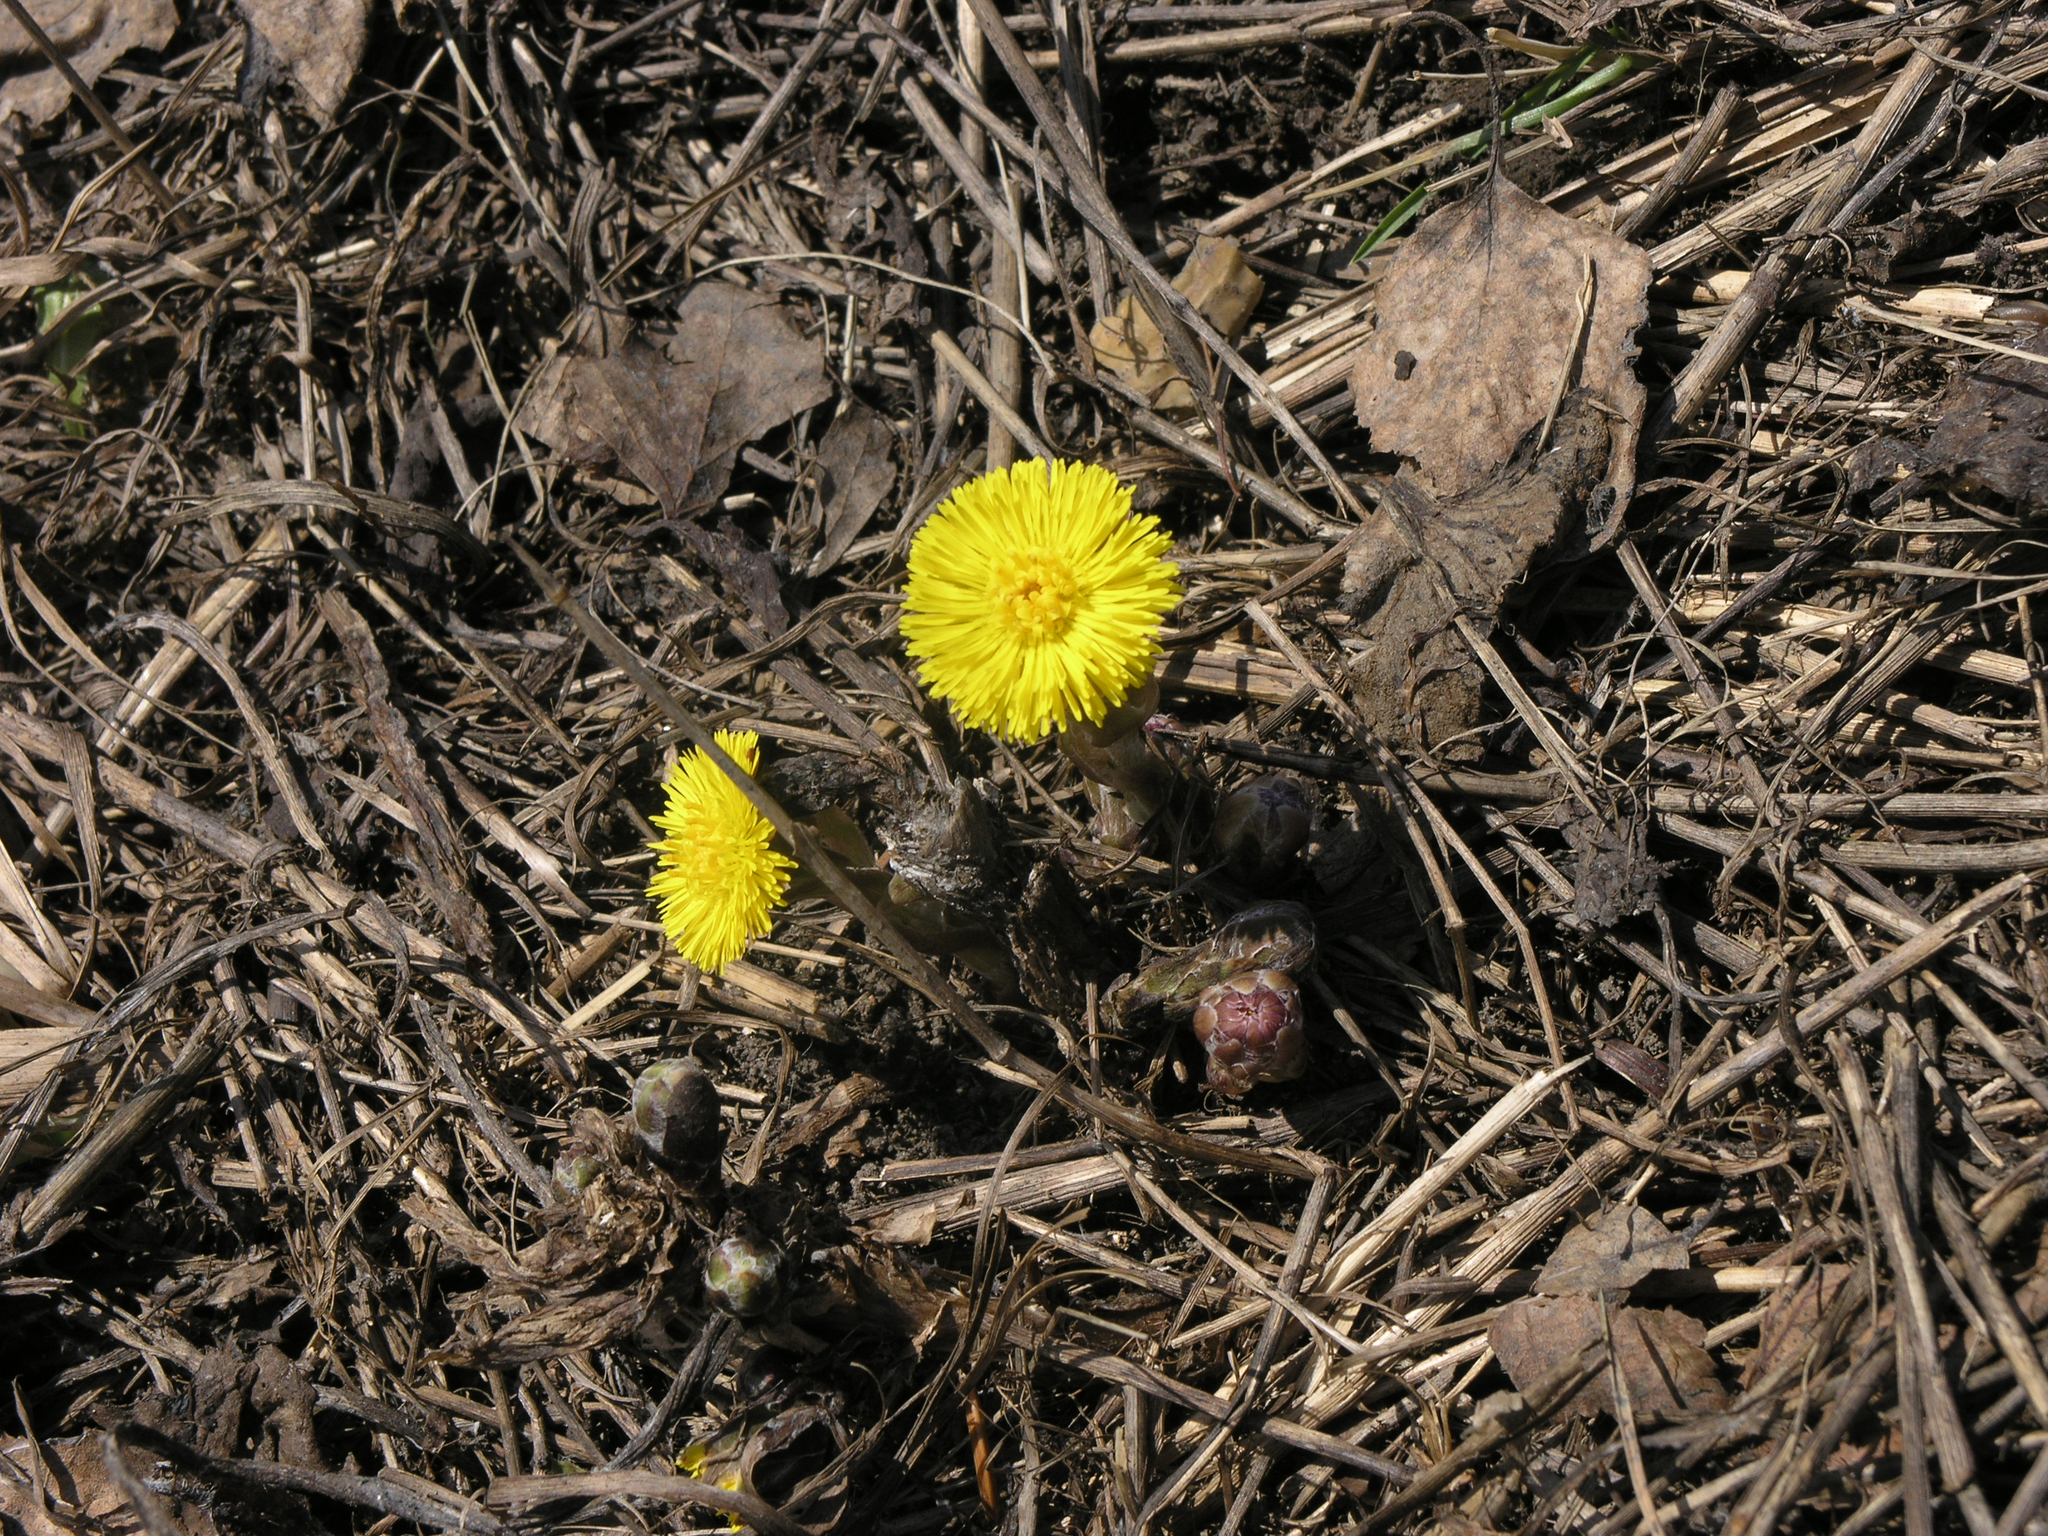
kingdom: Plantae
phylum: Tracheophyta
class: Magnoliopsida
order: Asterales
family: Asteraceae
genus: Tussilago
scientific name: Tussilago farfara
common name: Coltsfoot
